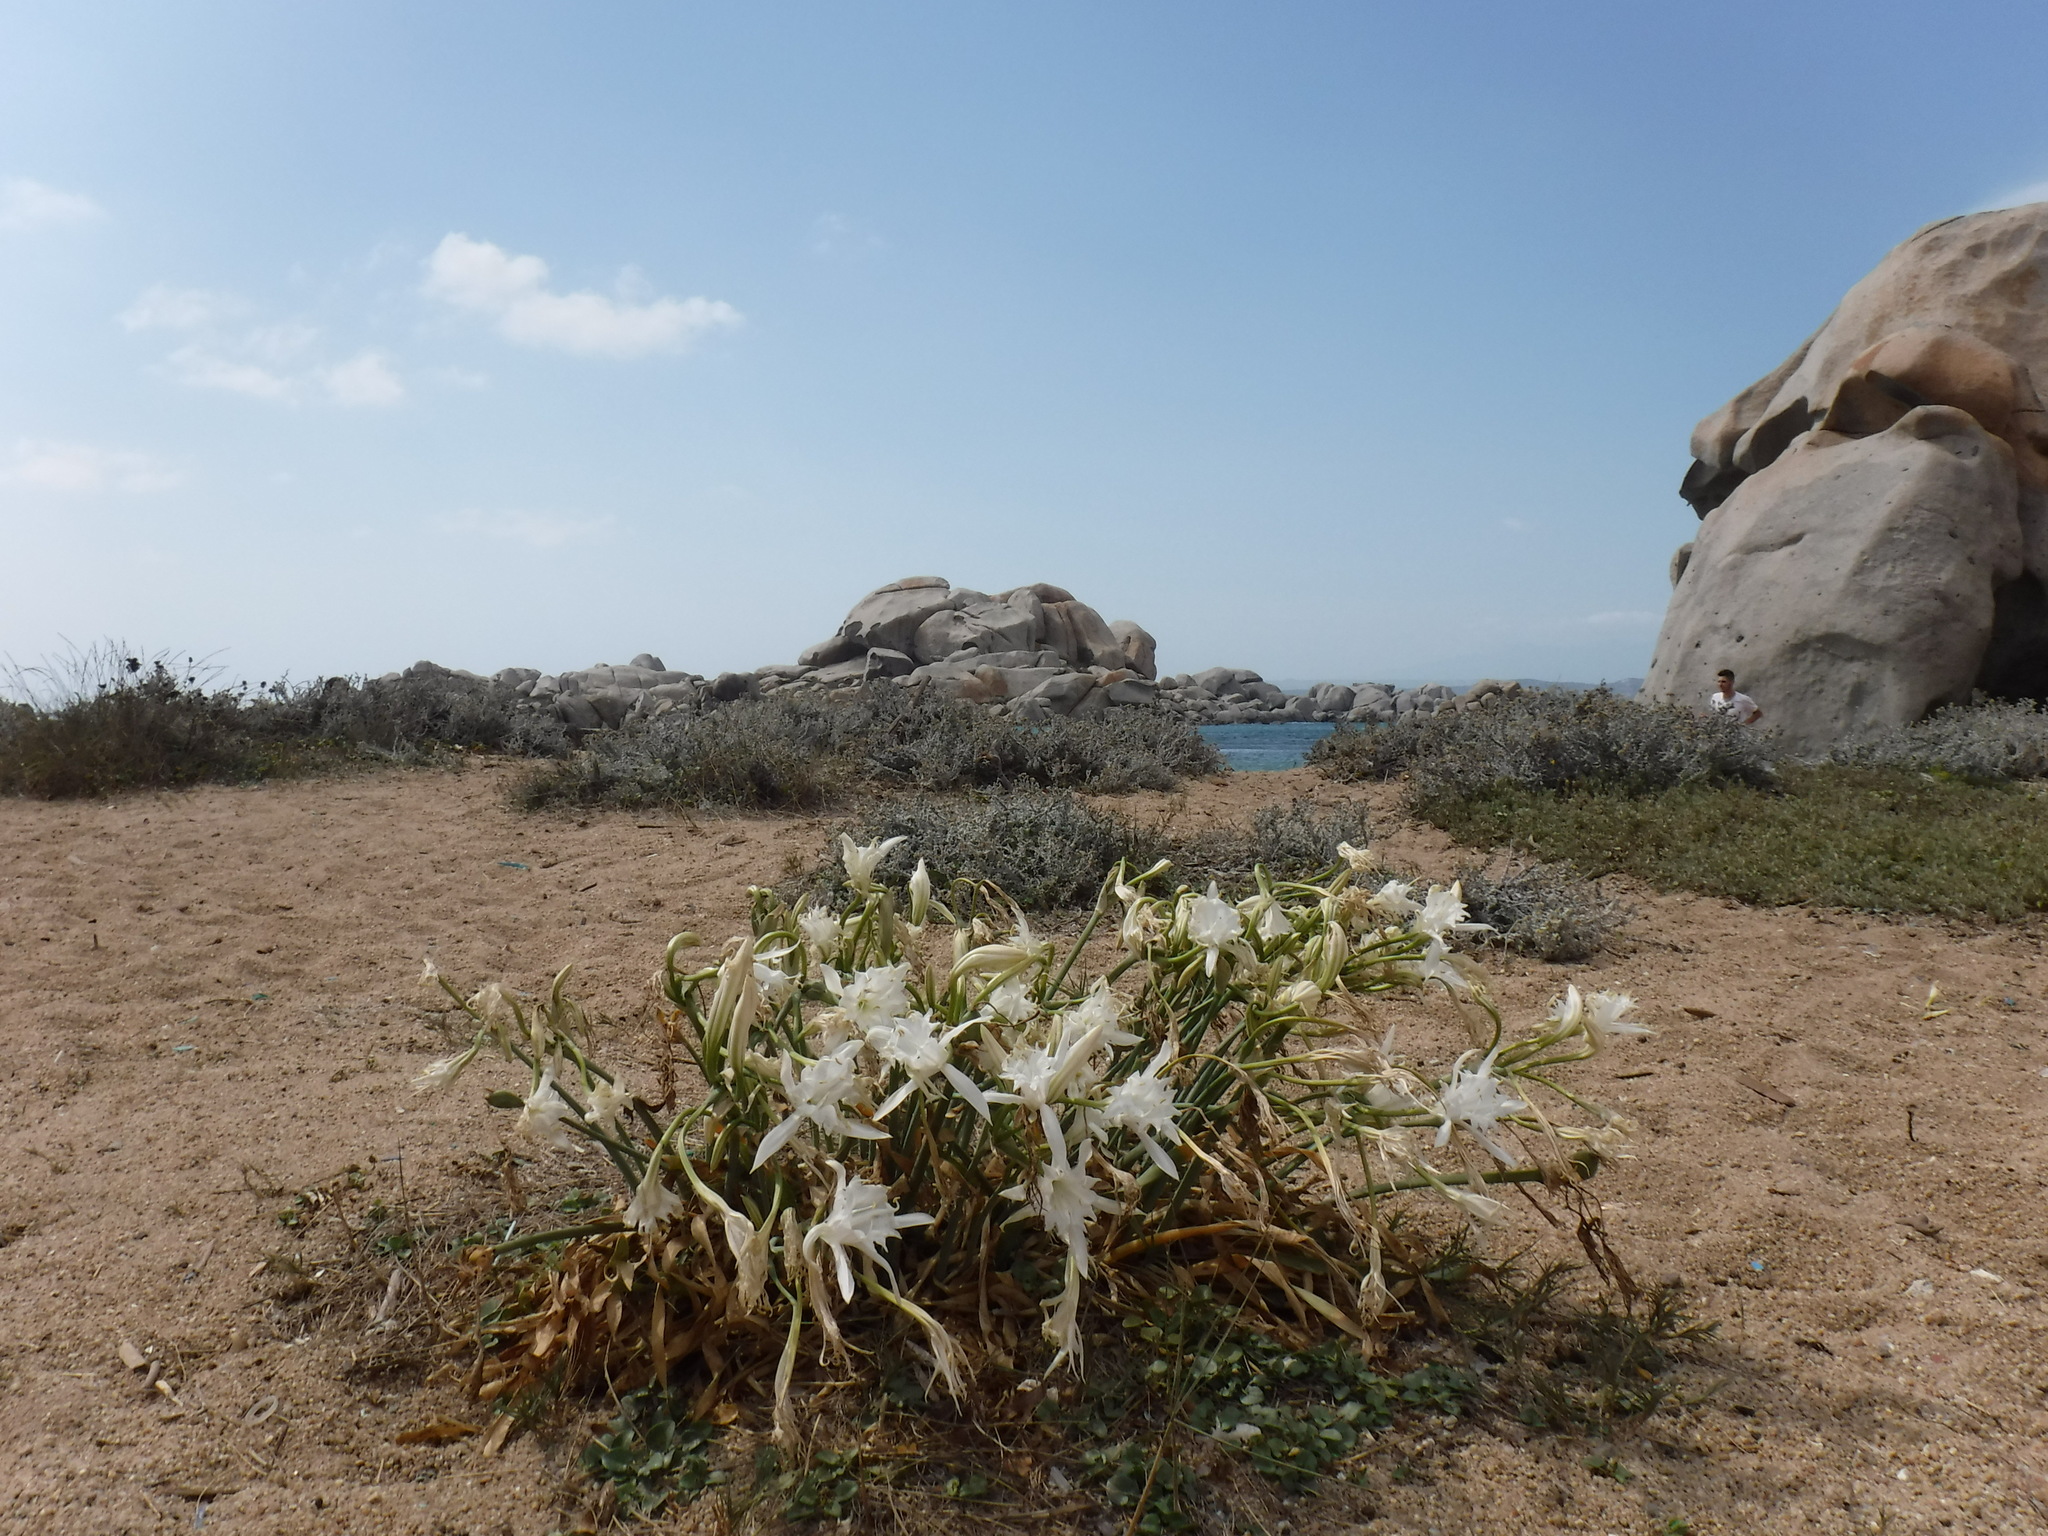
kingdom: Plantae
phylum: Tracheophyta
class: Liliopsida
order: Asparagales
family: Amaryllidaceae
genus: Pancratium
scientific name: Pancratium maritimum
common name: Sea-daffodil
